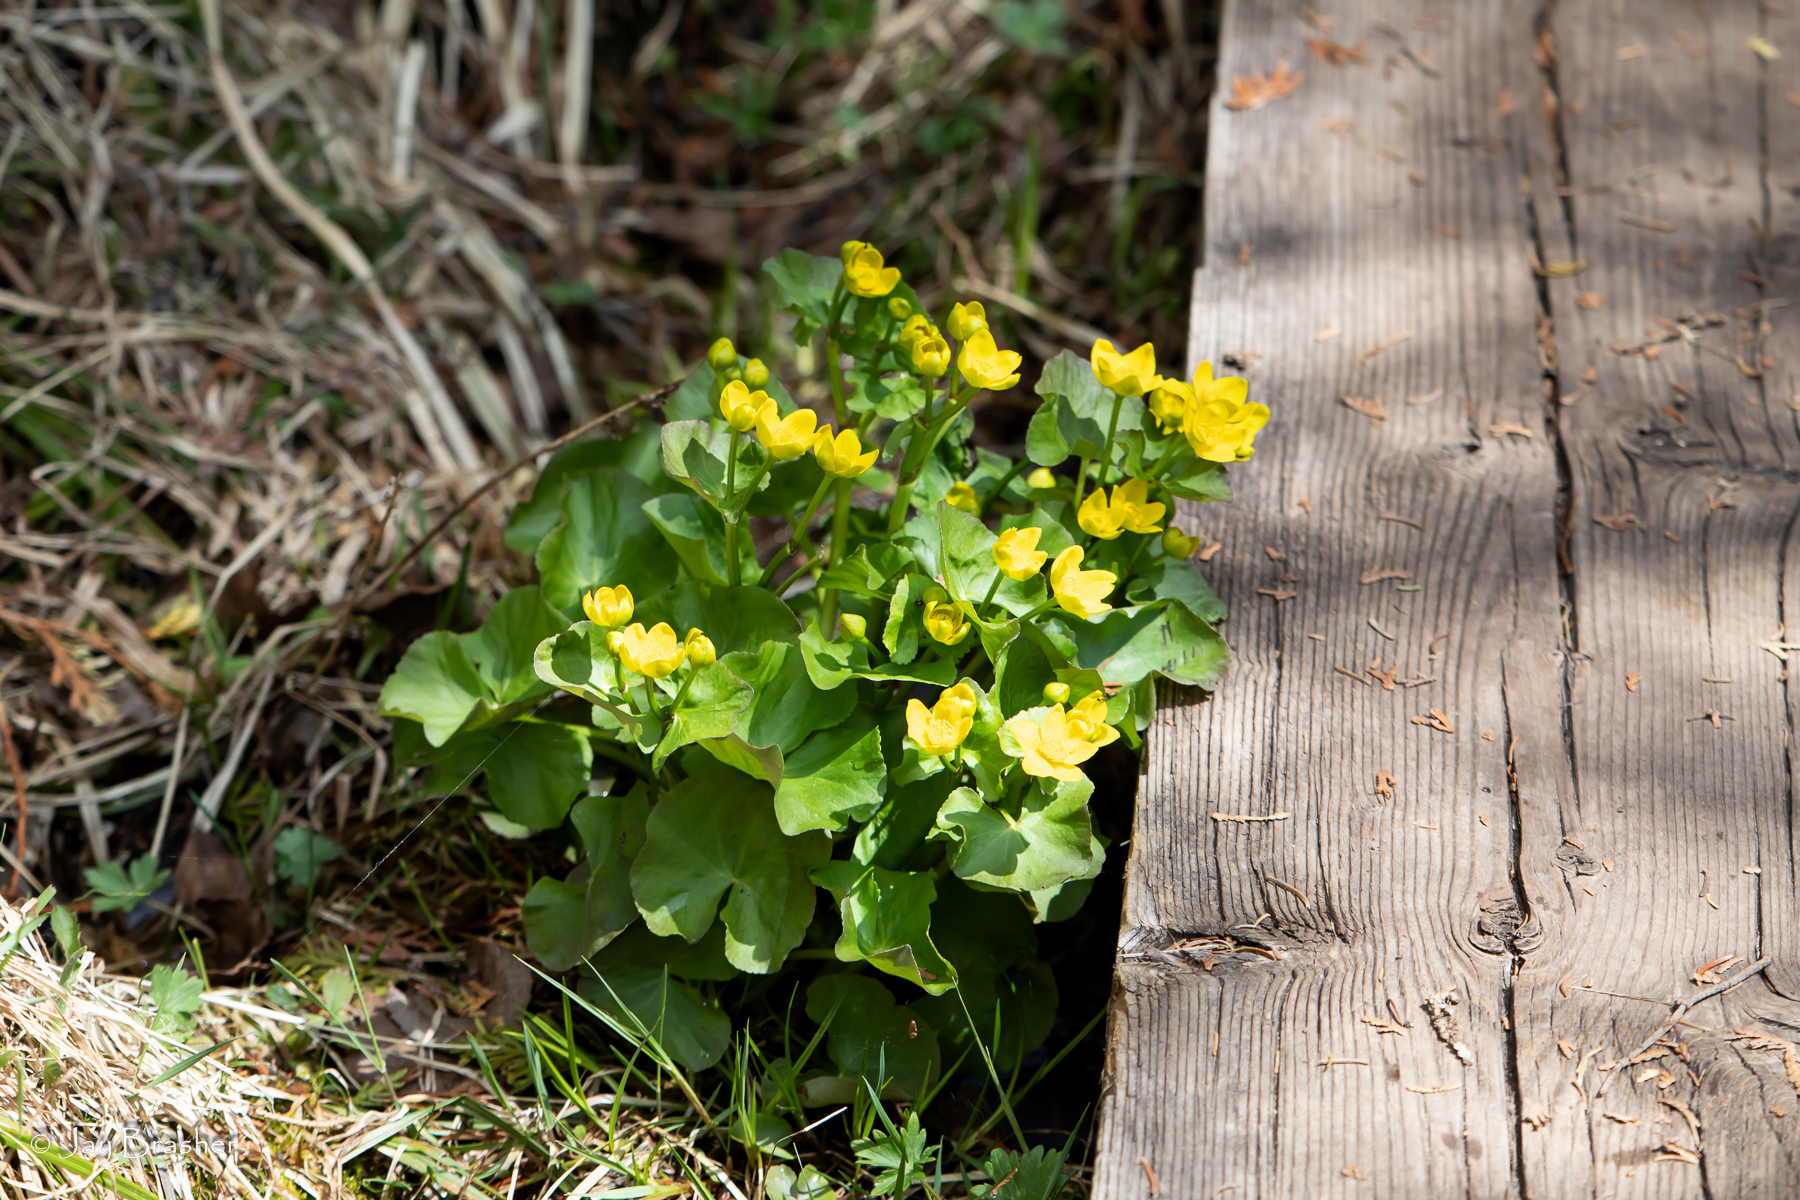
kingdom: Plantae
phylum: Tracheophyta
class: Magnoliopsida
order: Ranunculales
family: Ranunculaceae
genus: Caltha
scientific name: Caltha palustris
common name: Marsh marigold
